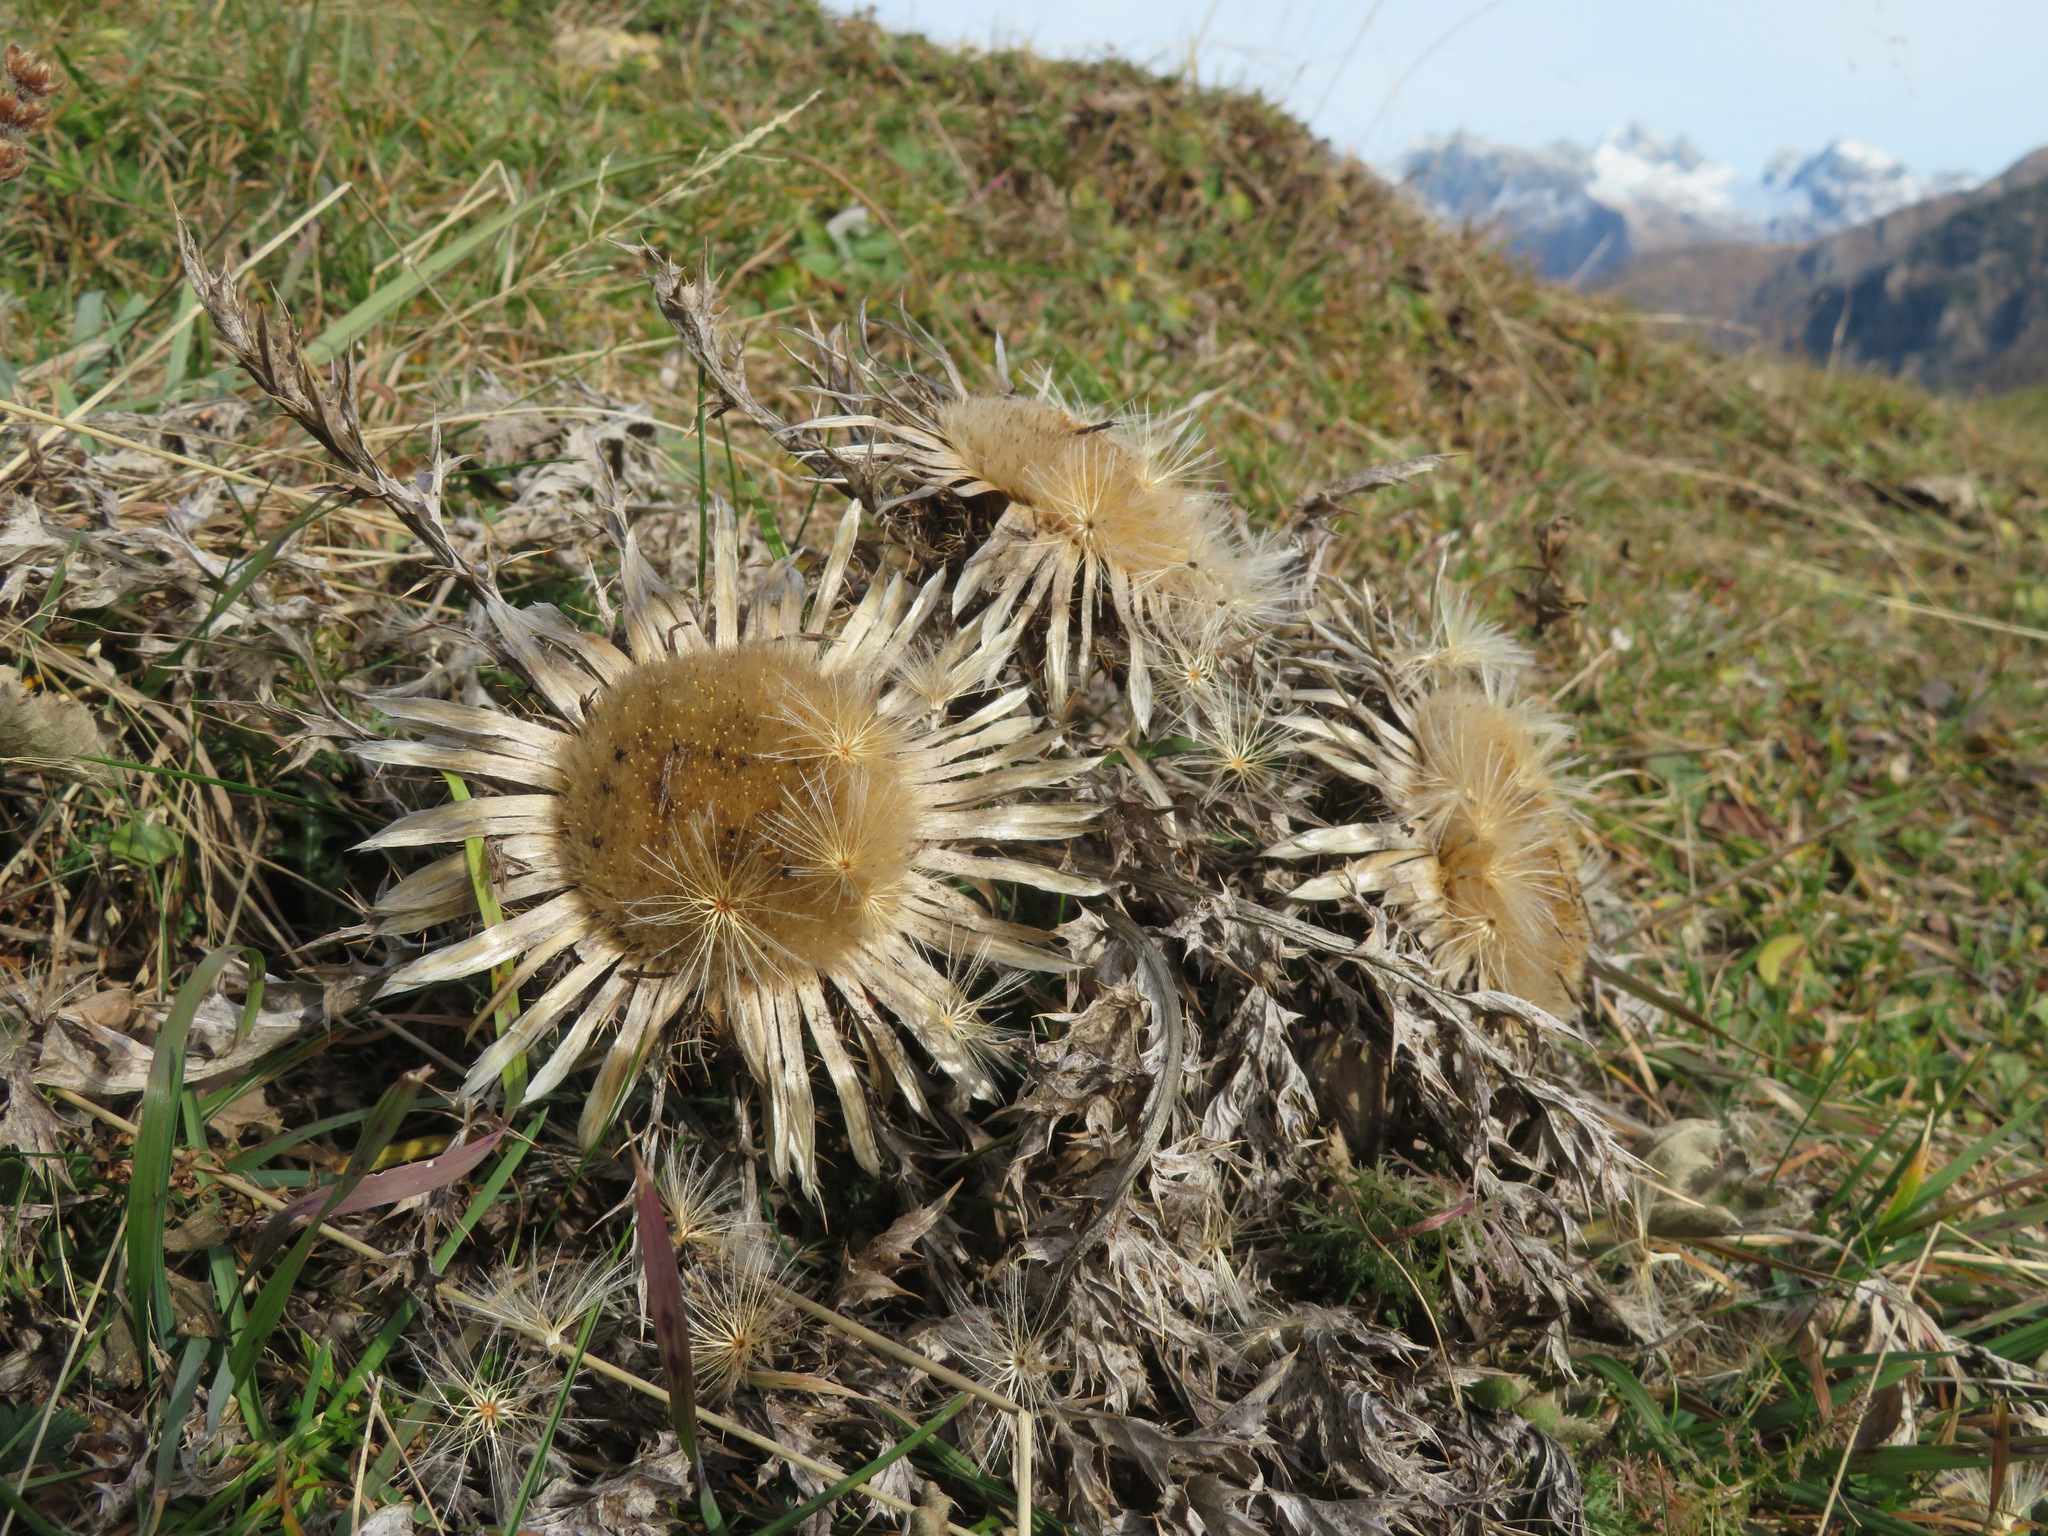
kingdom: Plantae
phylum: Tracheophyta
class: Magnoliopsida
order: Asterales
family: Asteraceae
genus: Carlina
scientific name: Carlina acaulis
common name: Stemless carline thistle
